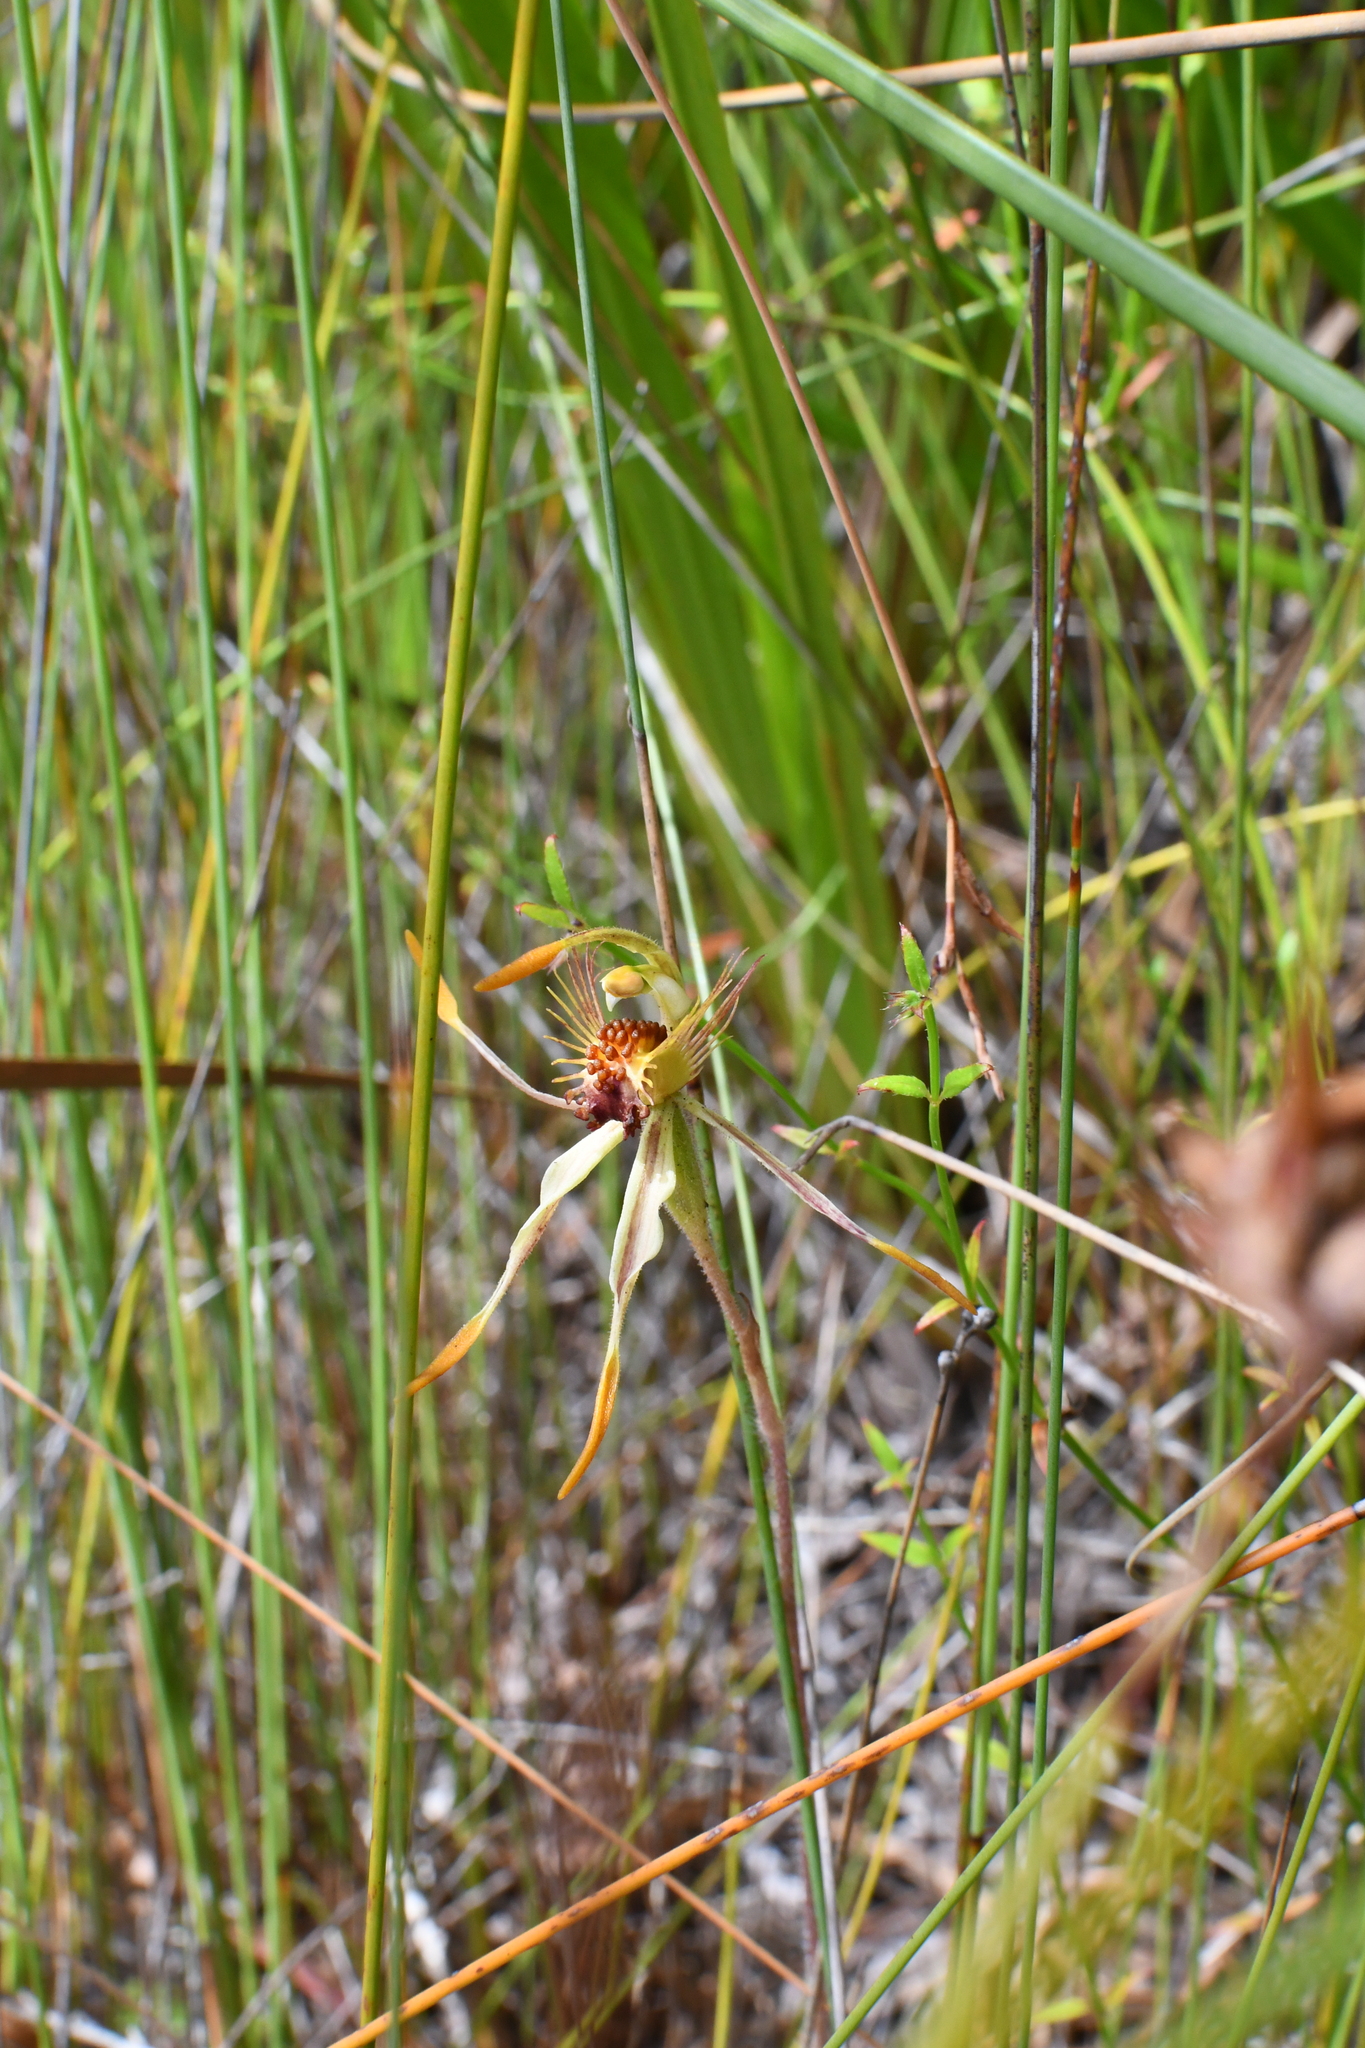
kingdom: Plantae
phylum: Tracheophyta
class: Liliopsida
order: Asparagales
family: Orchidaceae
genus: Caladenia
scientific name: Caladenia corynephora
